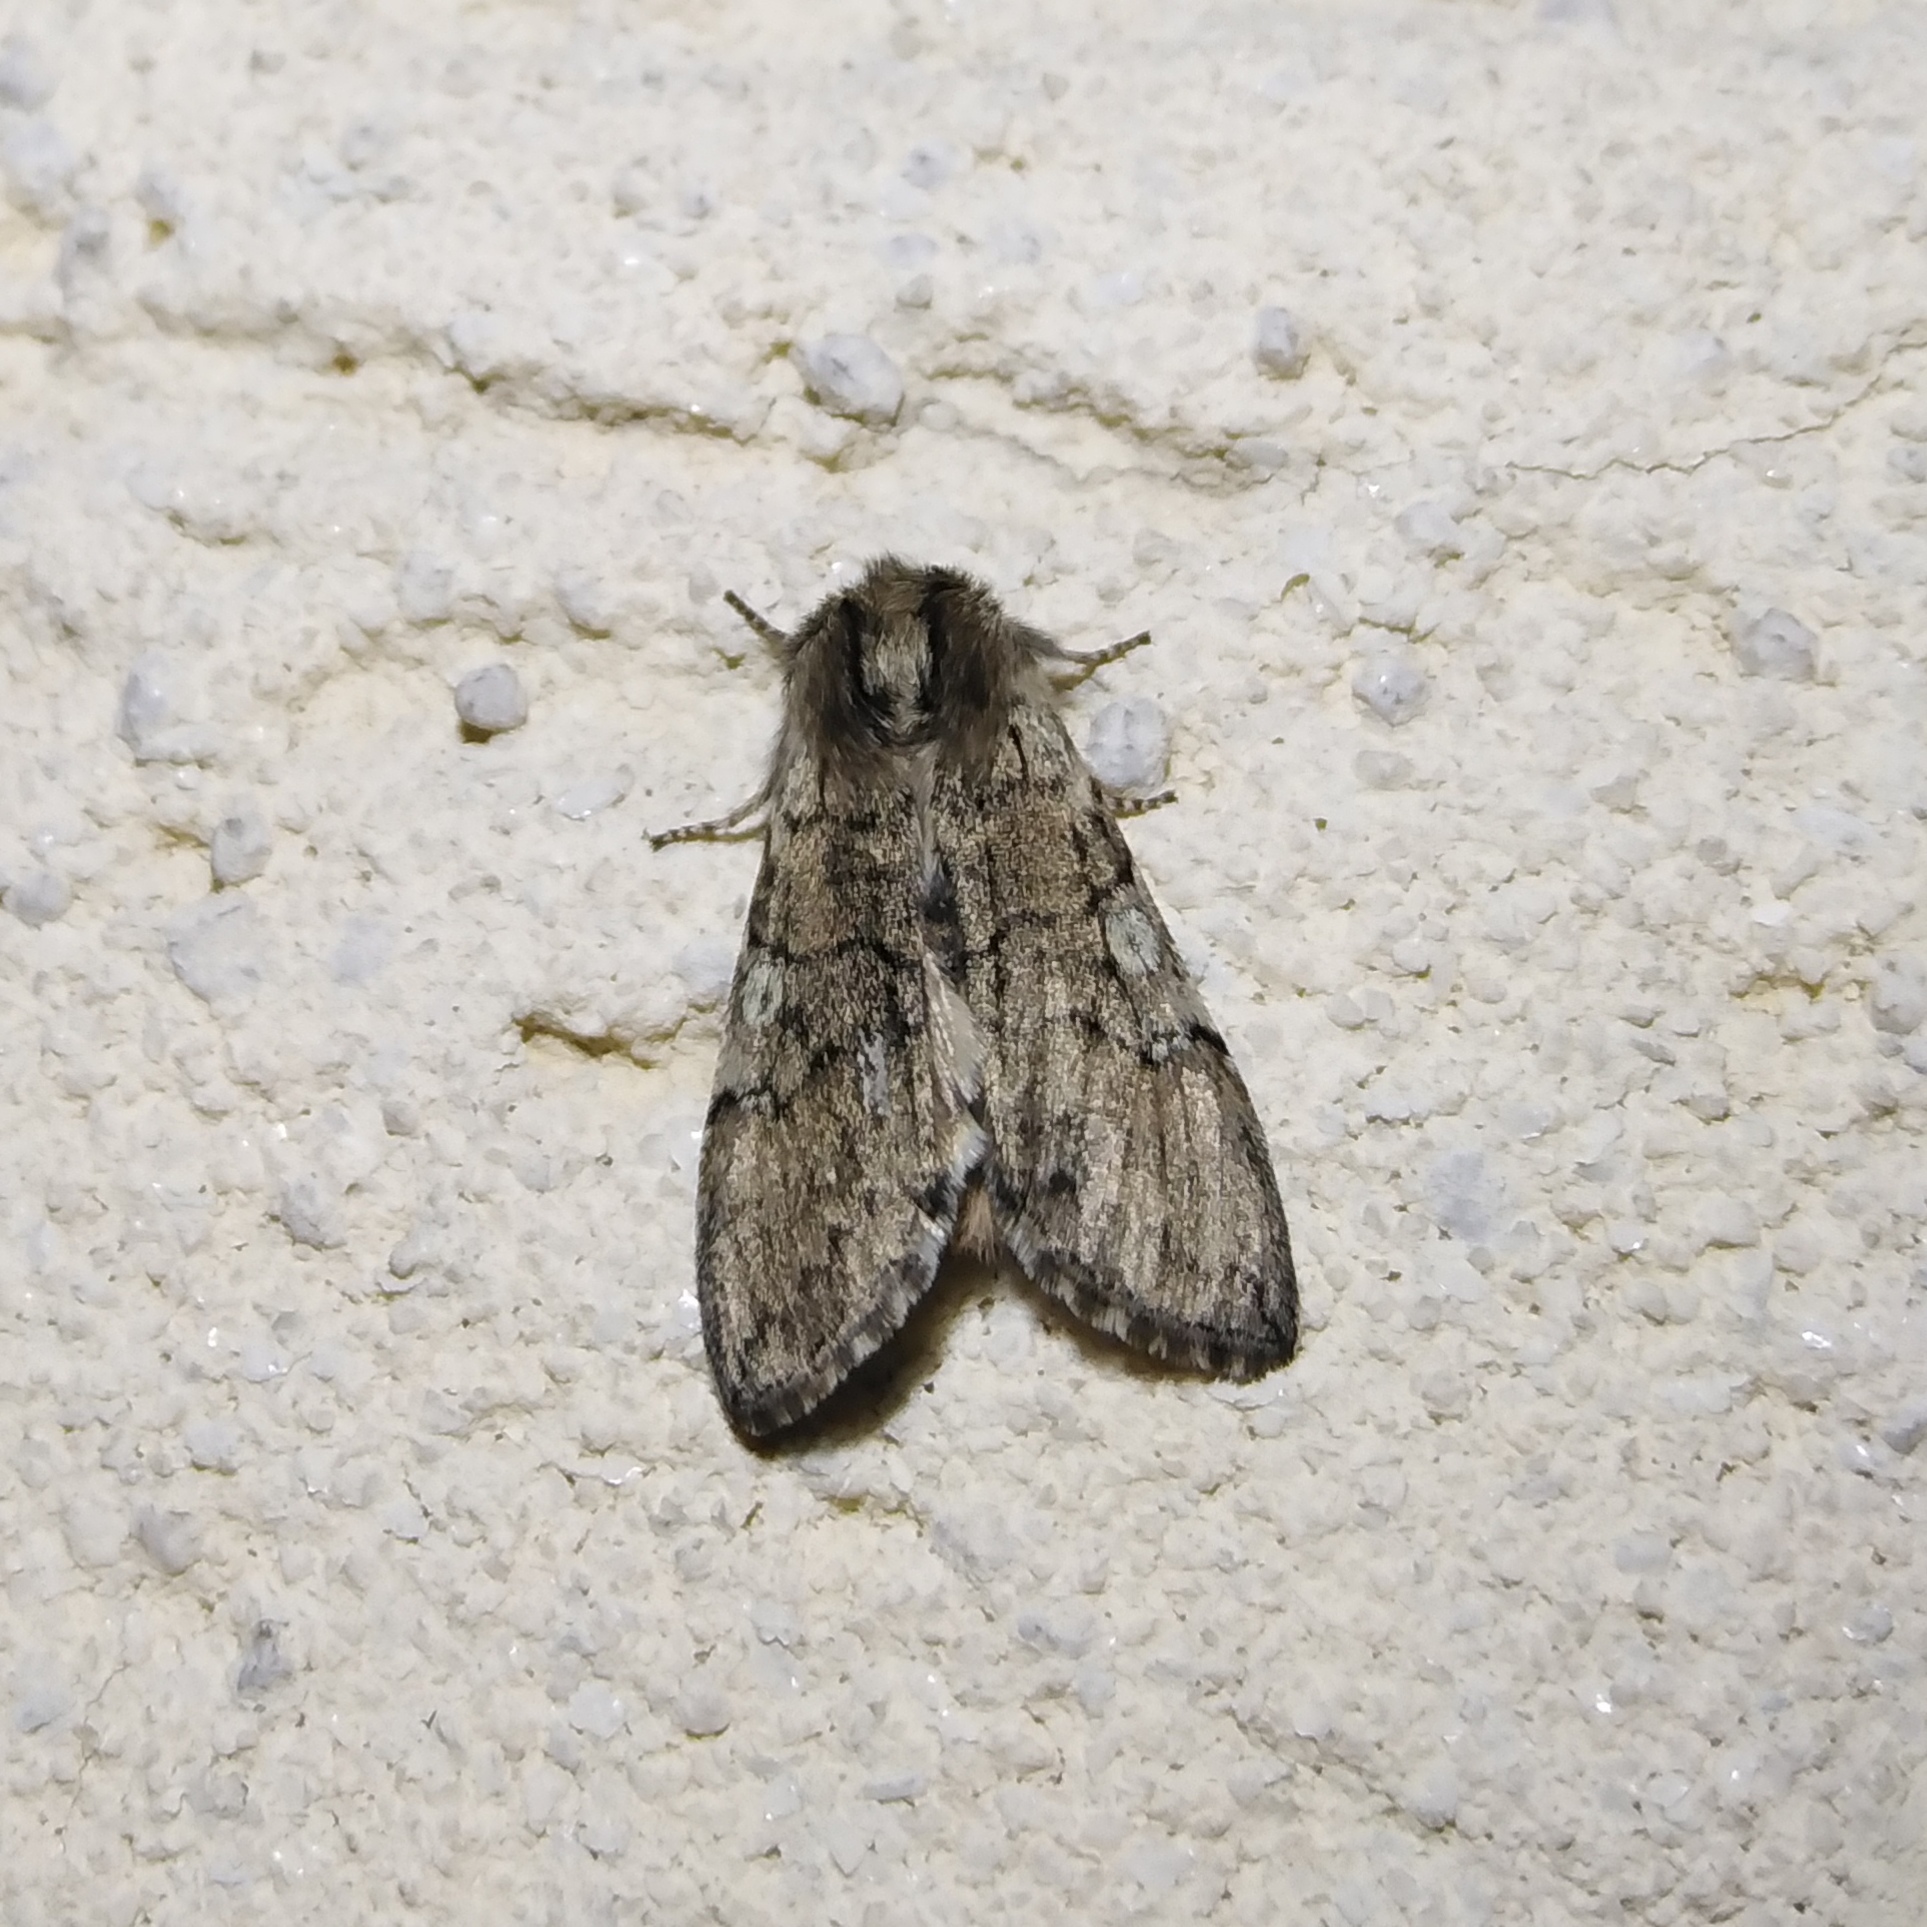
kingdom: Animalia
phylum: Arthropoda
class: Insecta
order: Lepidoptera
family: Drepanidae
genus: Achlya
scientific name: Achlya flavicornis
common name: Yellow horned
